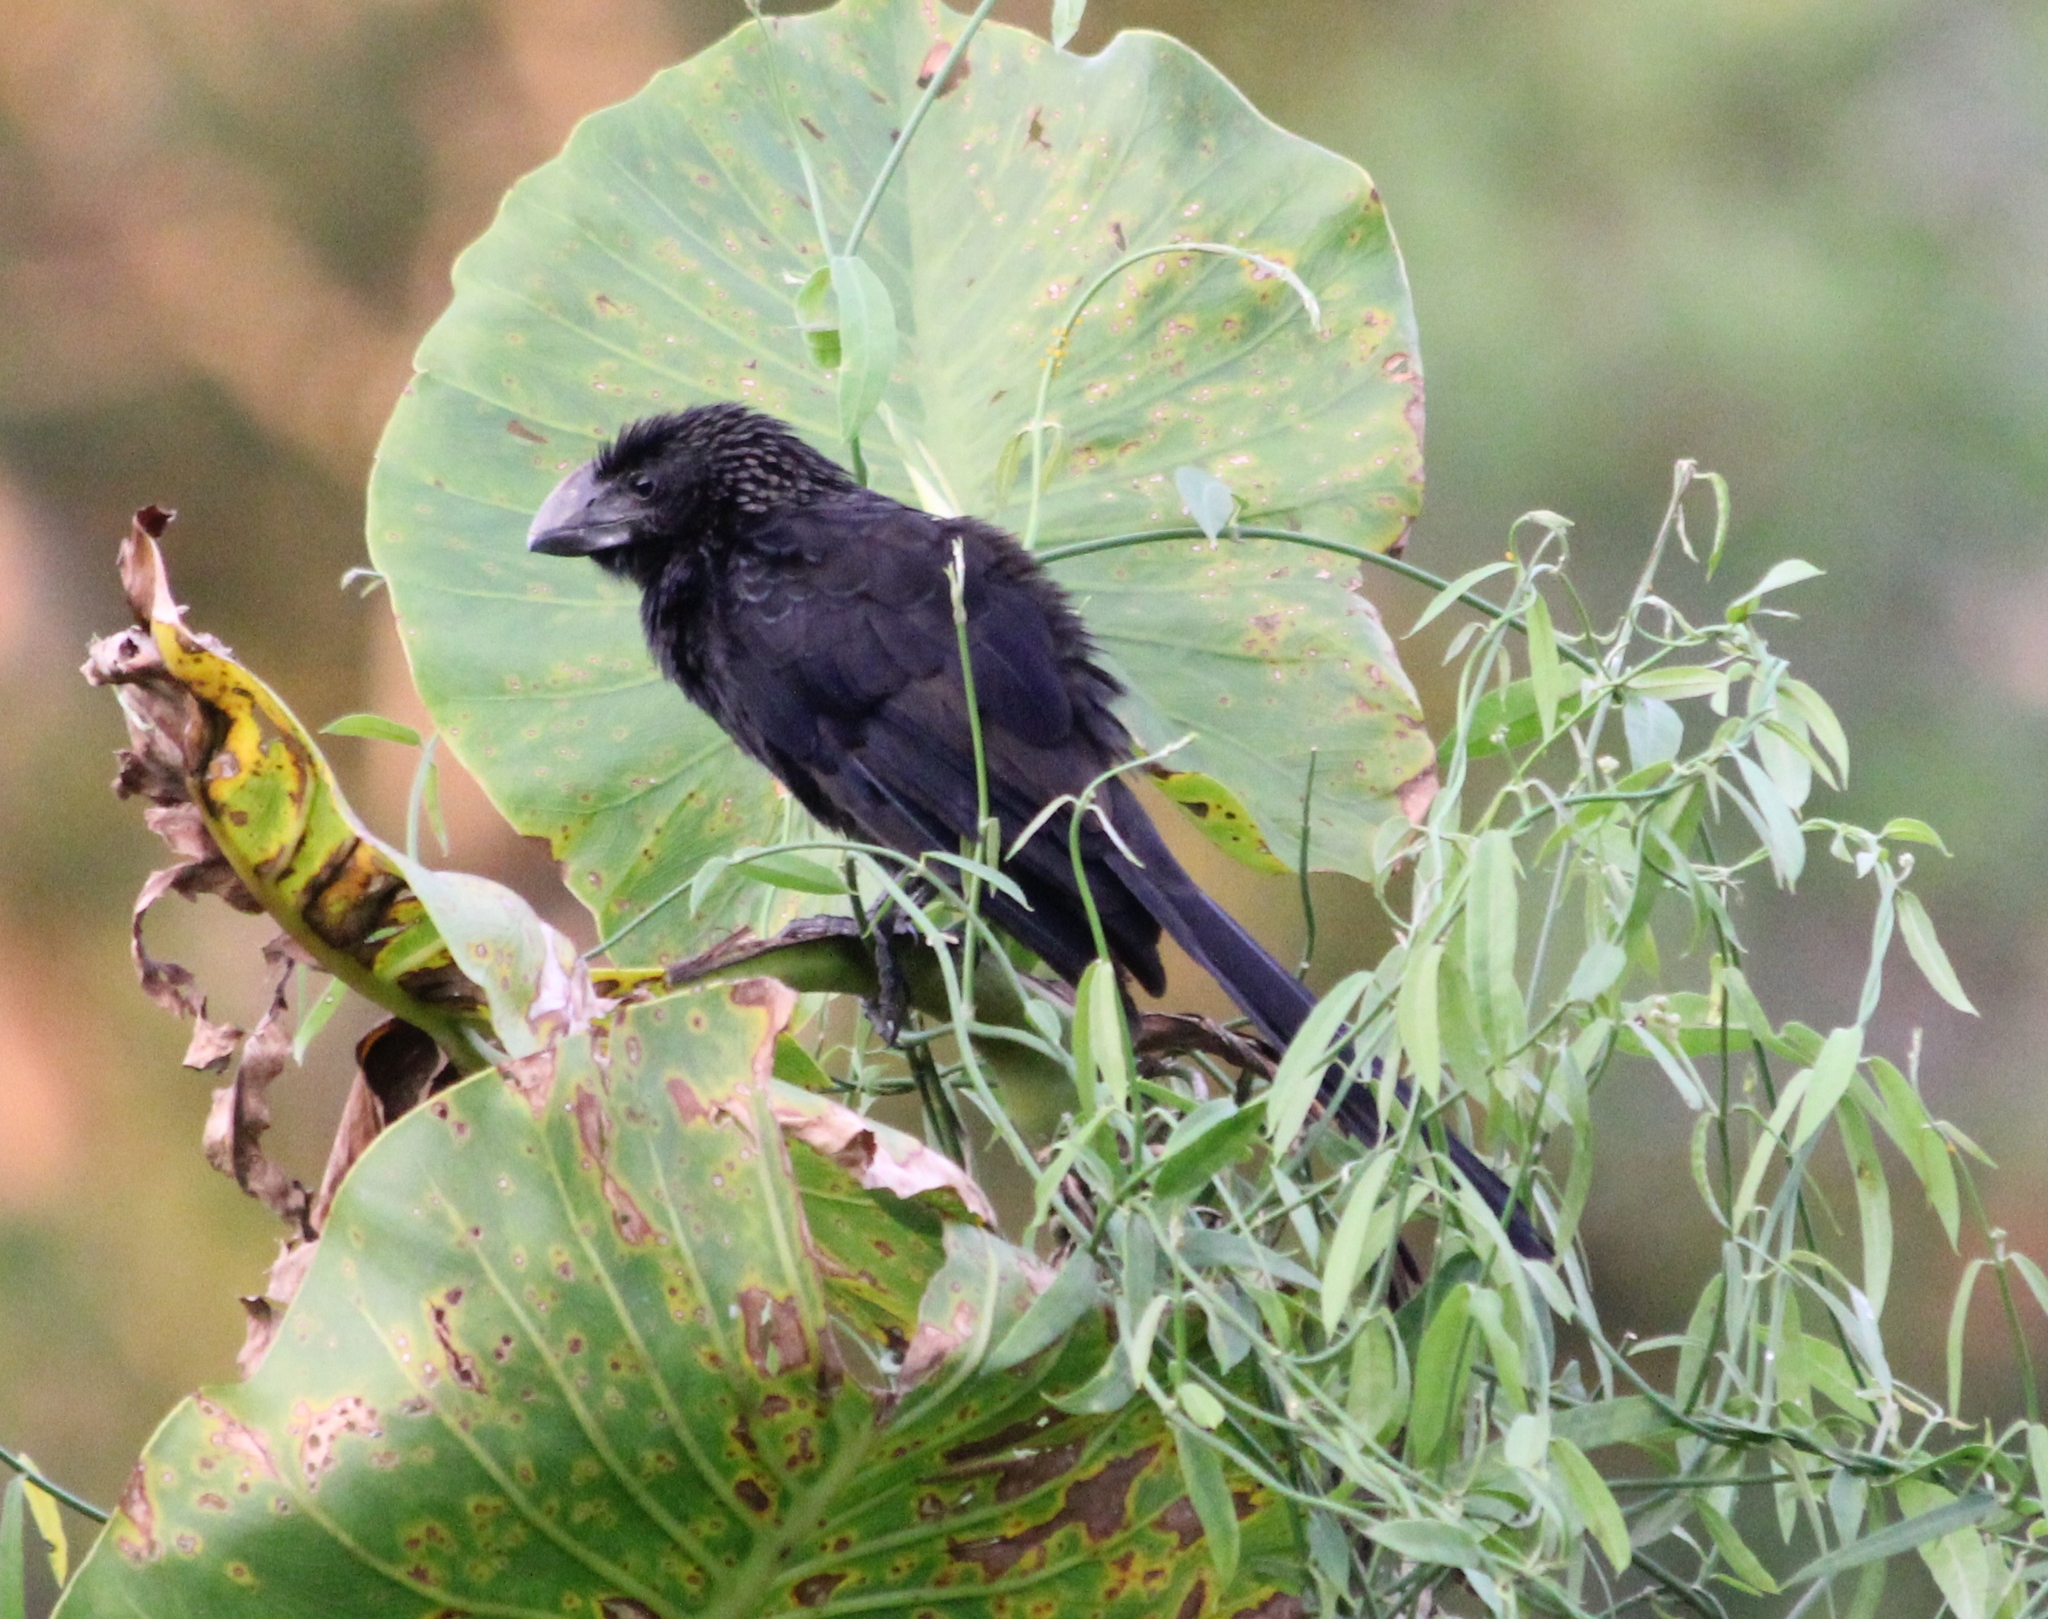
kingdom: Animalia
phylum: Chordata
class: Aves
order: Cuculiformes
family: Cuculidae
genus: Crotophaga
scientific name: Crotophaga ani
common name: Smooth-billed ani
